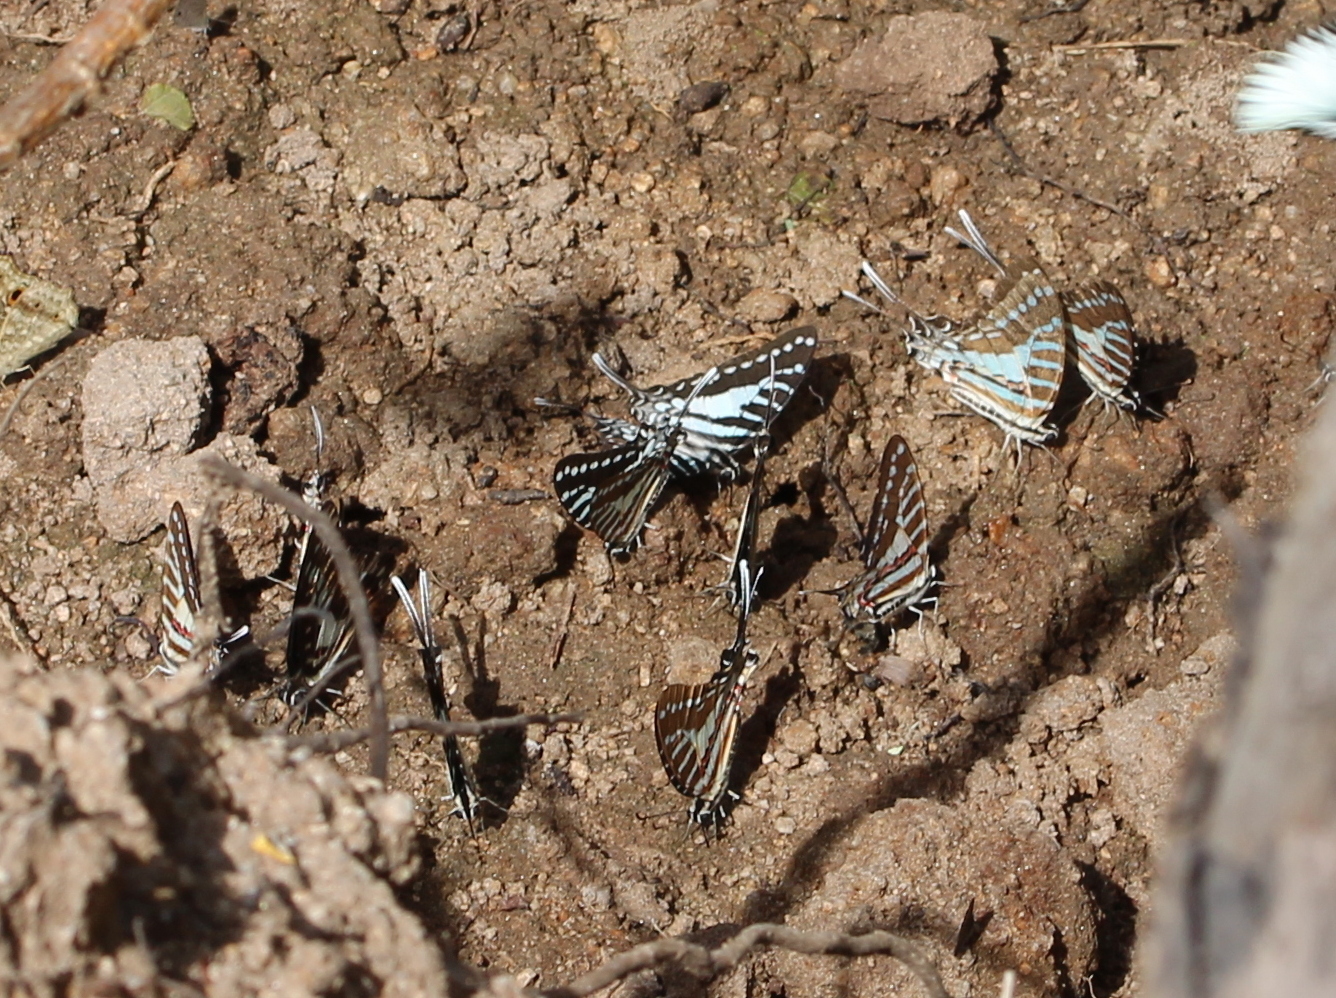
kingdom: Animalia
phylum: Arthropoda
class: Insecta
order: Lepidoptera
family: Papilionidae
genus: Graphium
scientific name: Graphium nomius
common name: Spot swordtail
